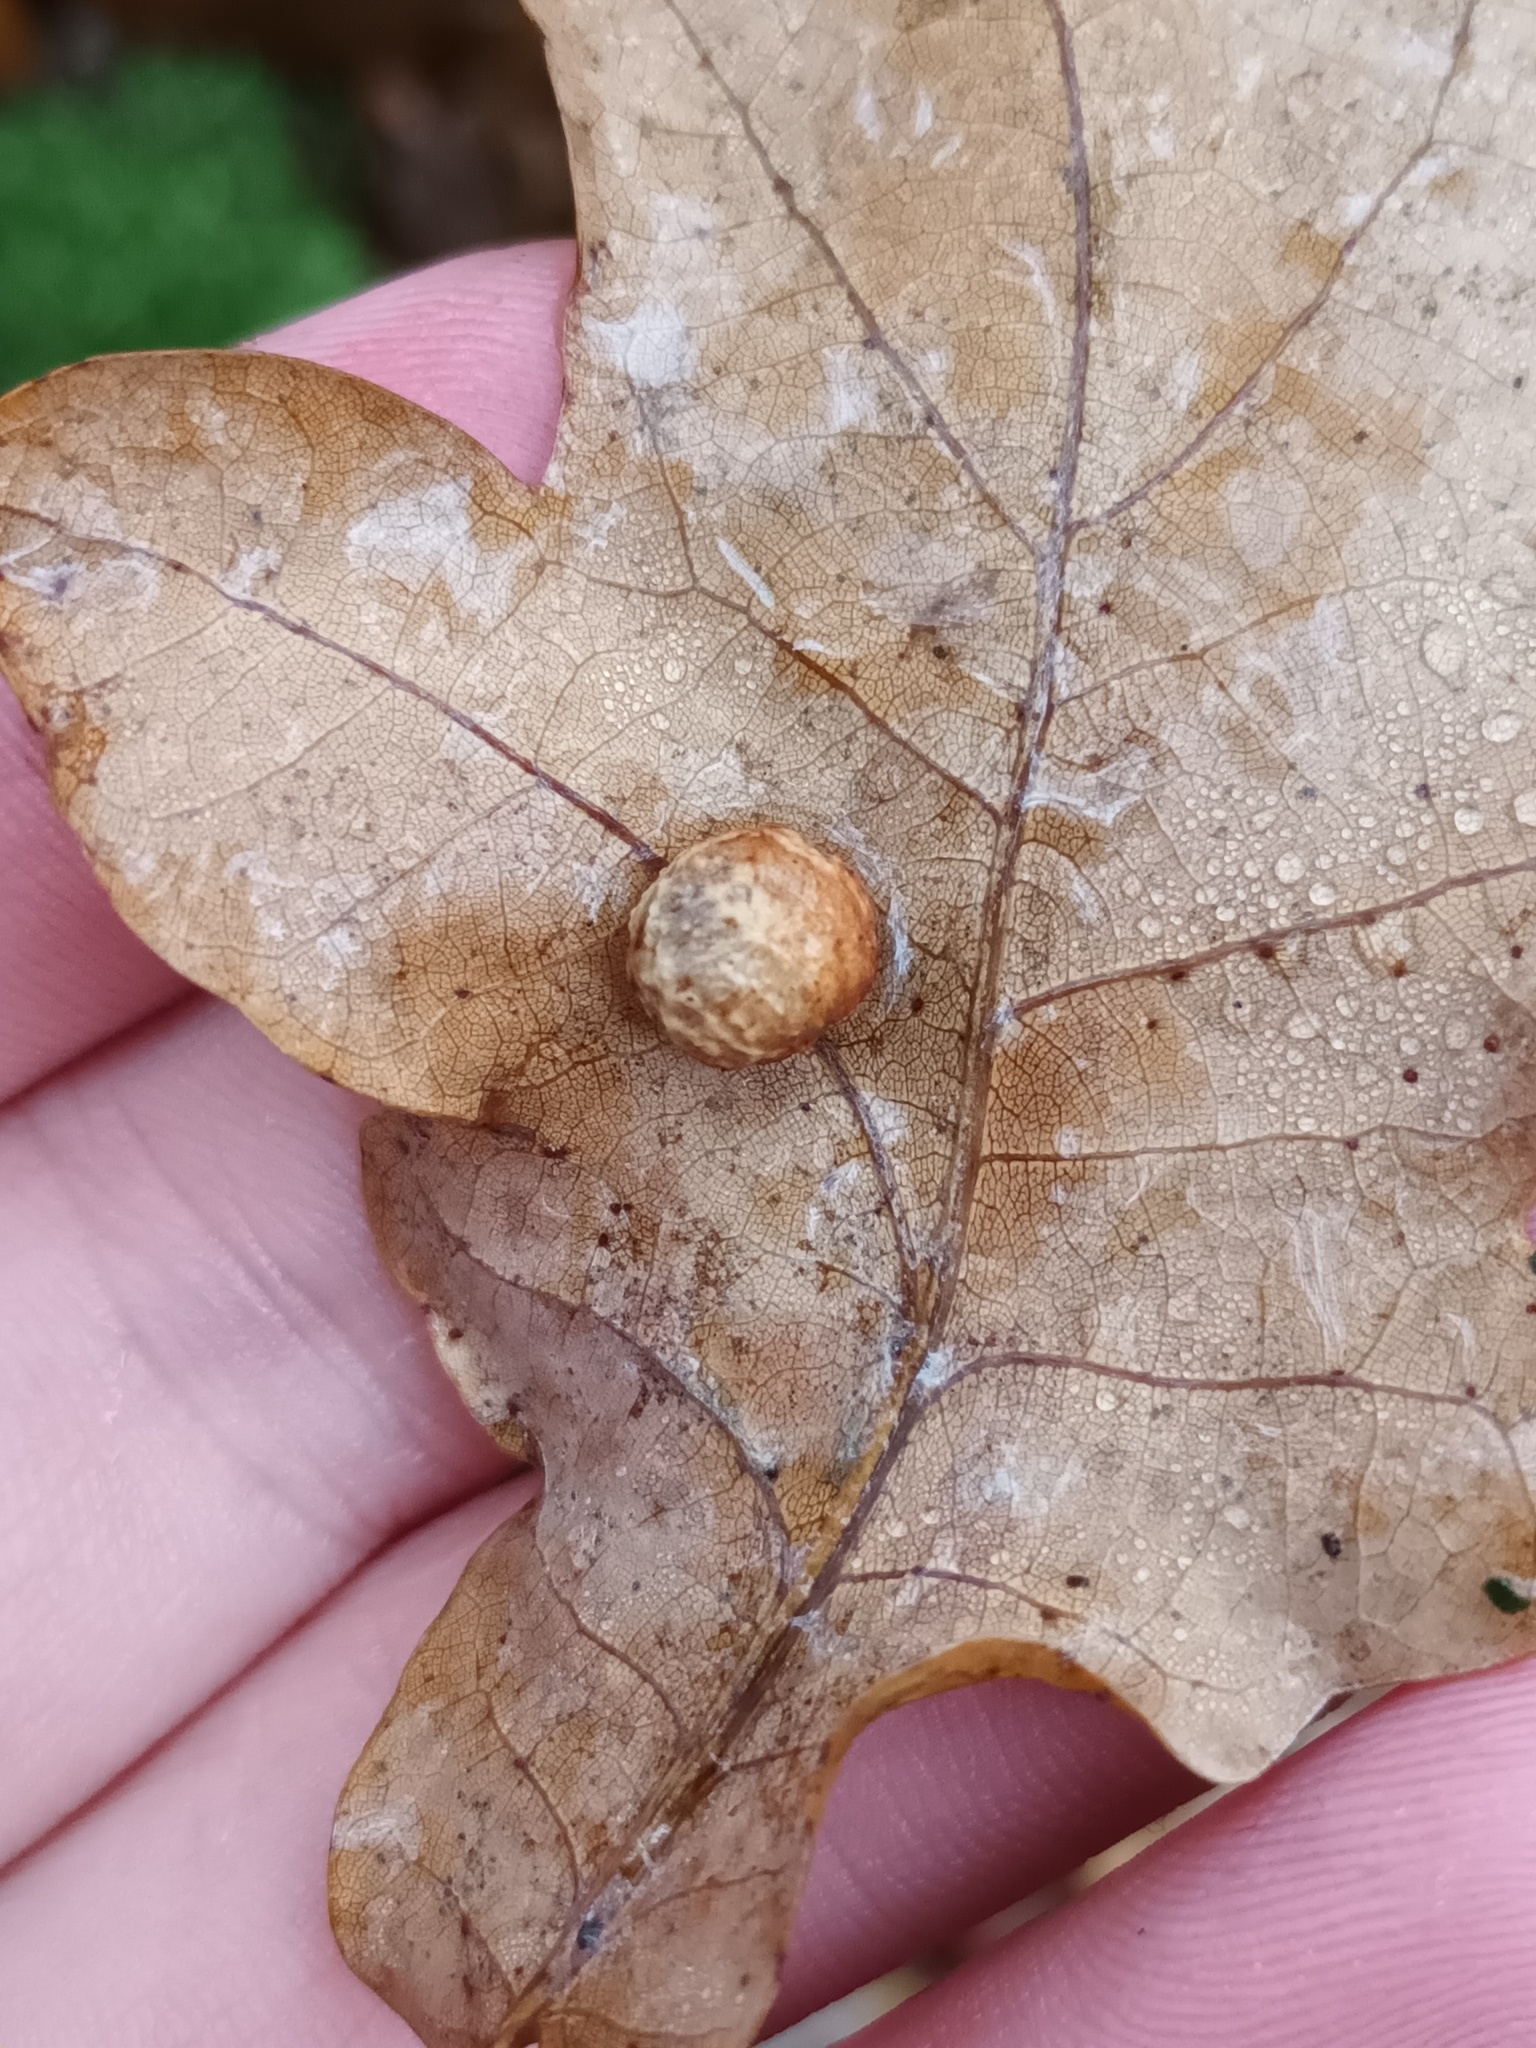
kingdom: Animalia
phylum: Arthropoda
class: Insecta
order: Hymenoptera
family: Cynipidae
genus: Cynips
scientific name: Cynips longiventris
